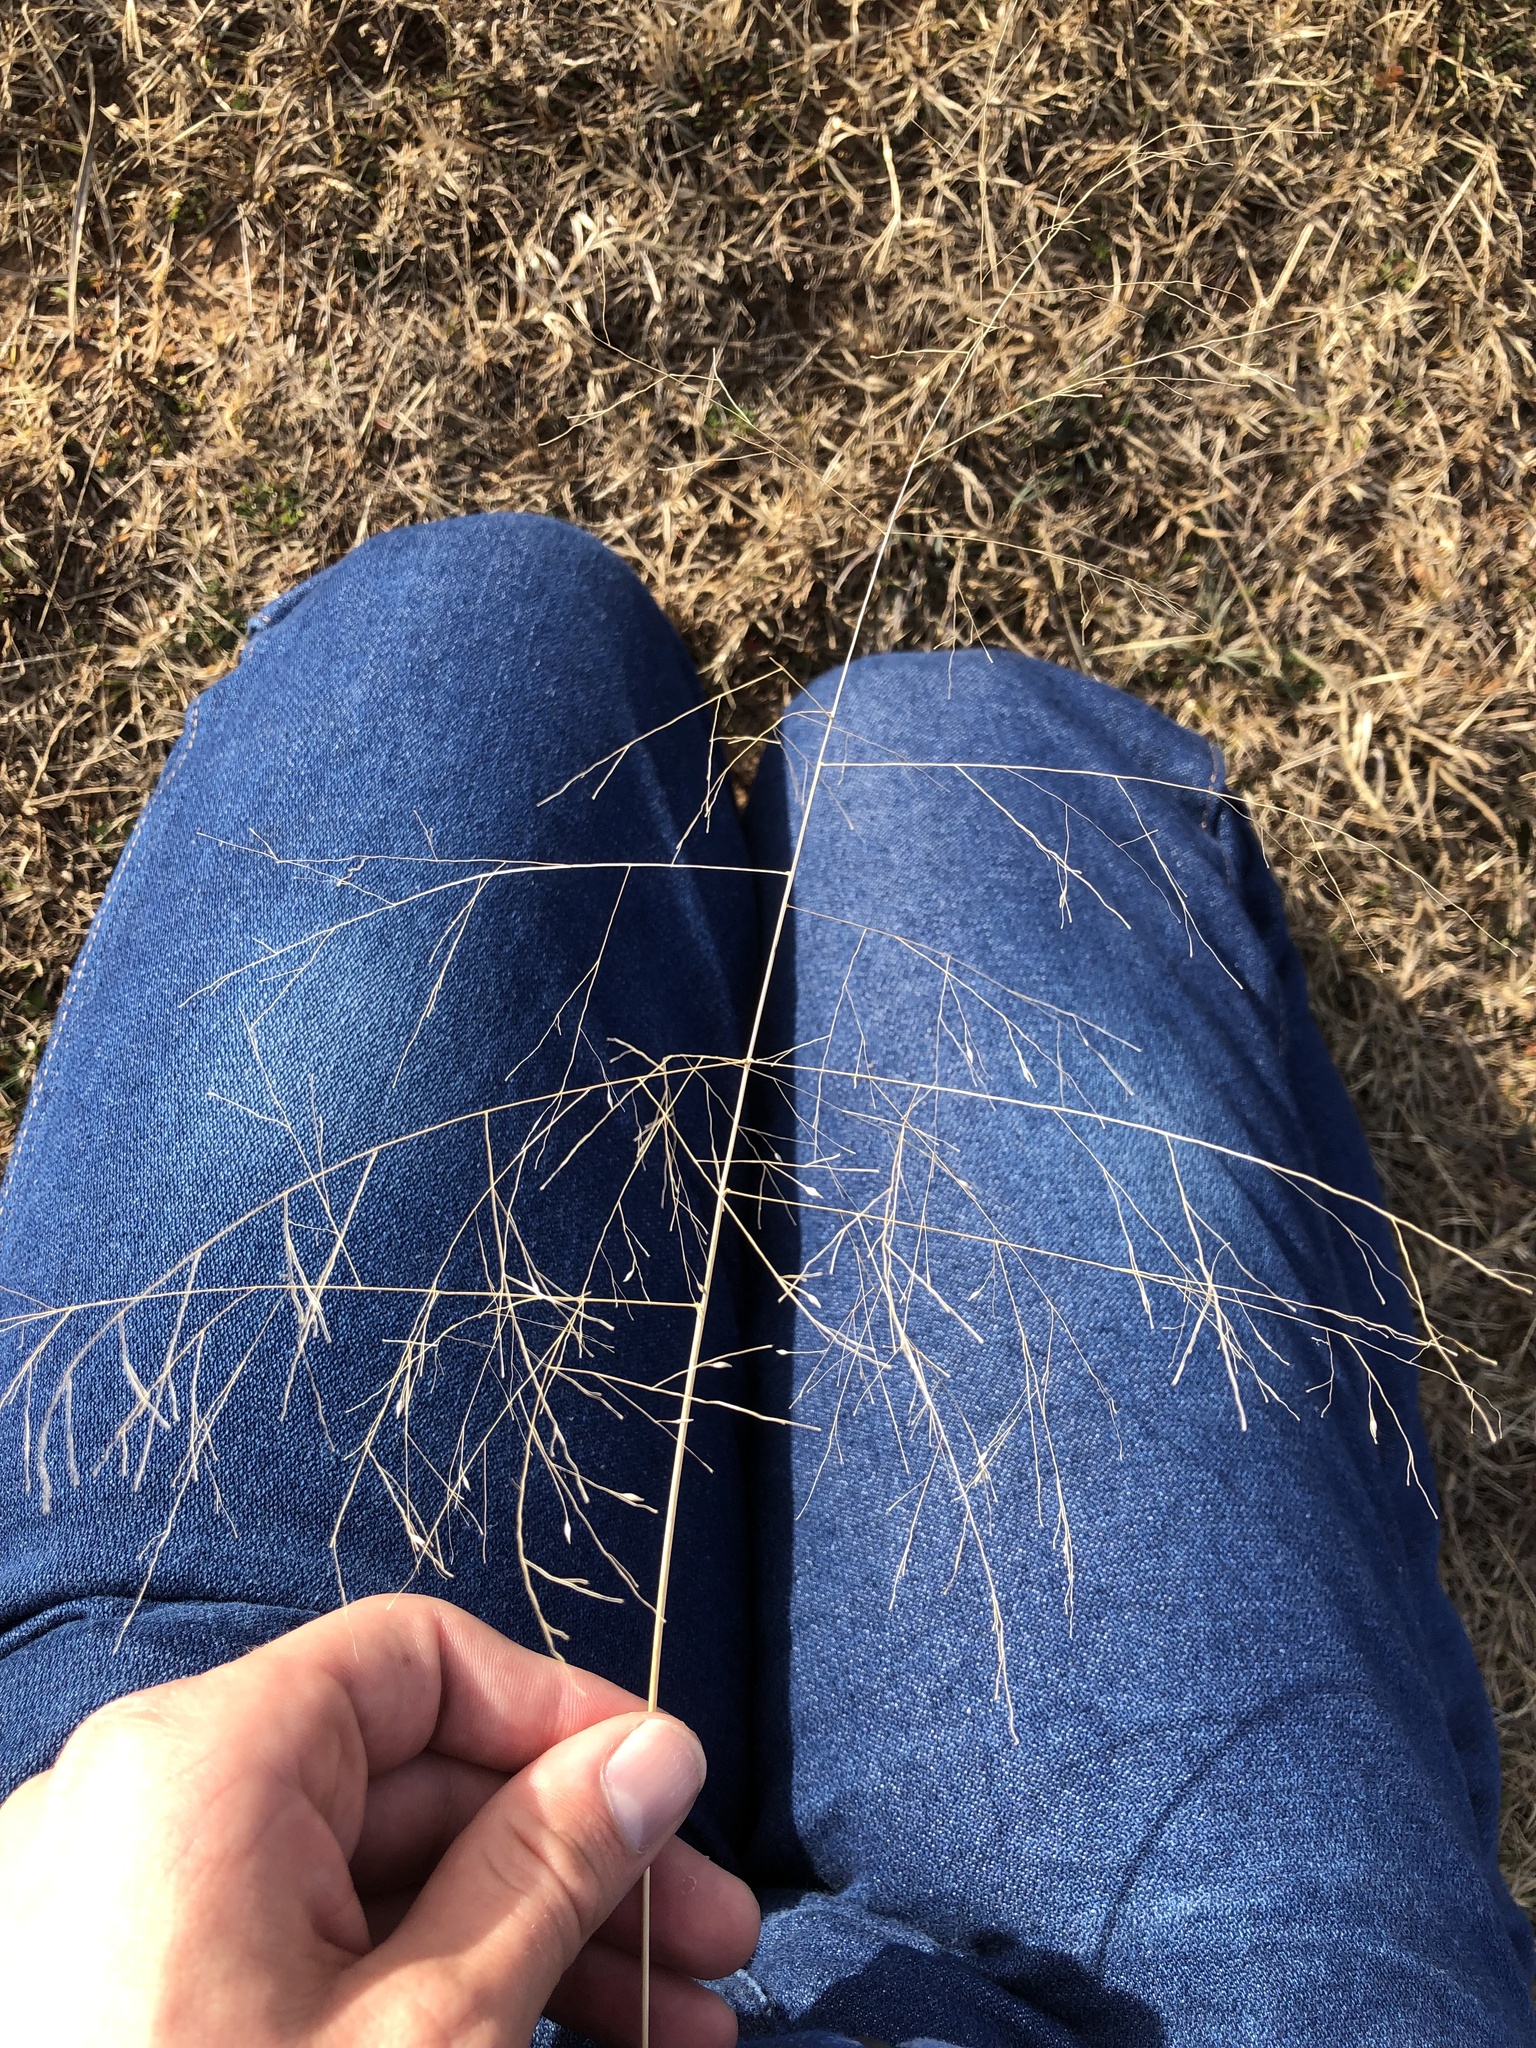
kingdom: Plantae
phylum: Tracheophyta
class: Liliopsida
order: Poales
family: Poaceae
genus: Panicum
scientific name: Panicum capillare
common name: Witch-grass
